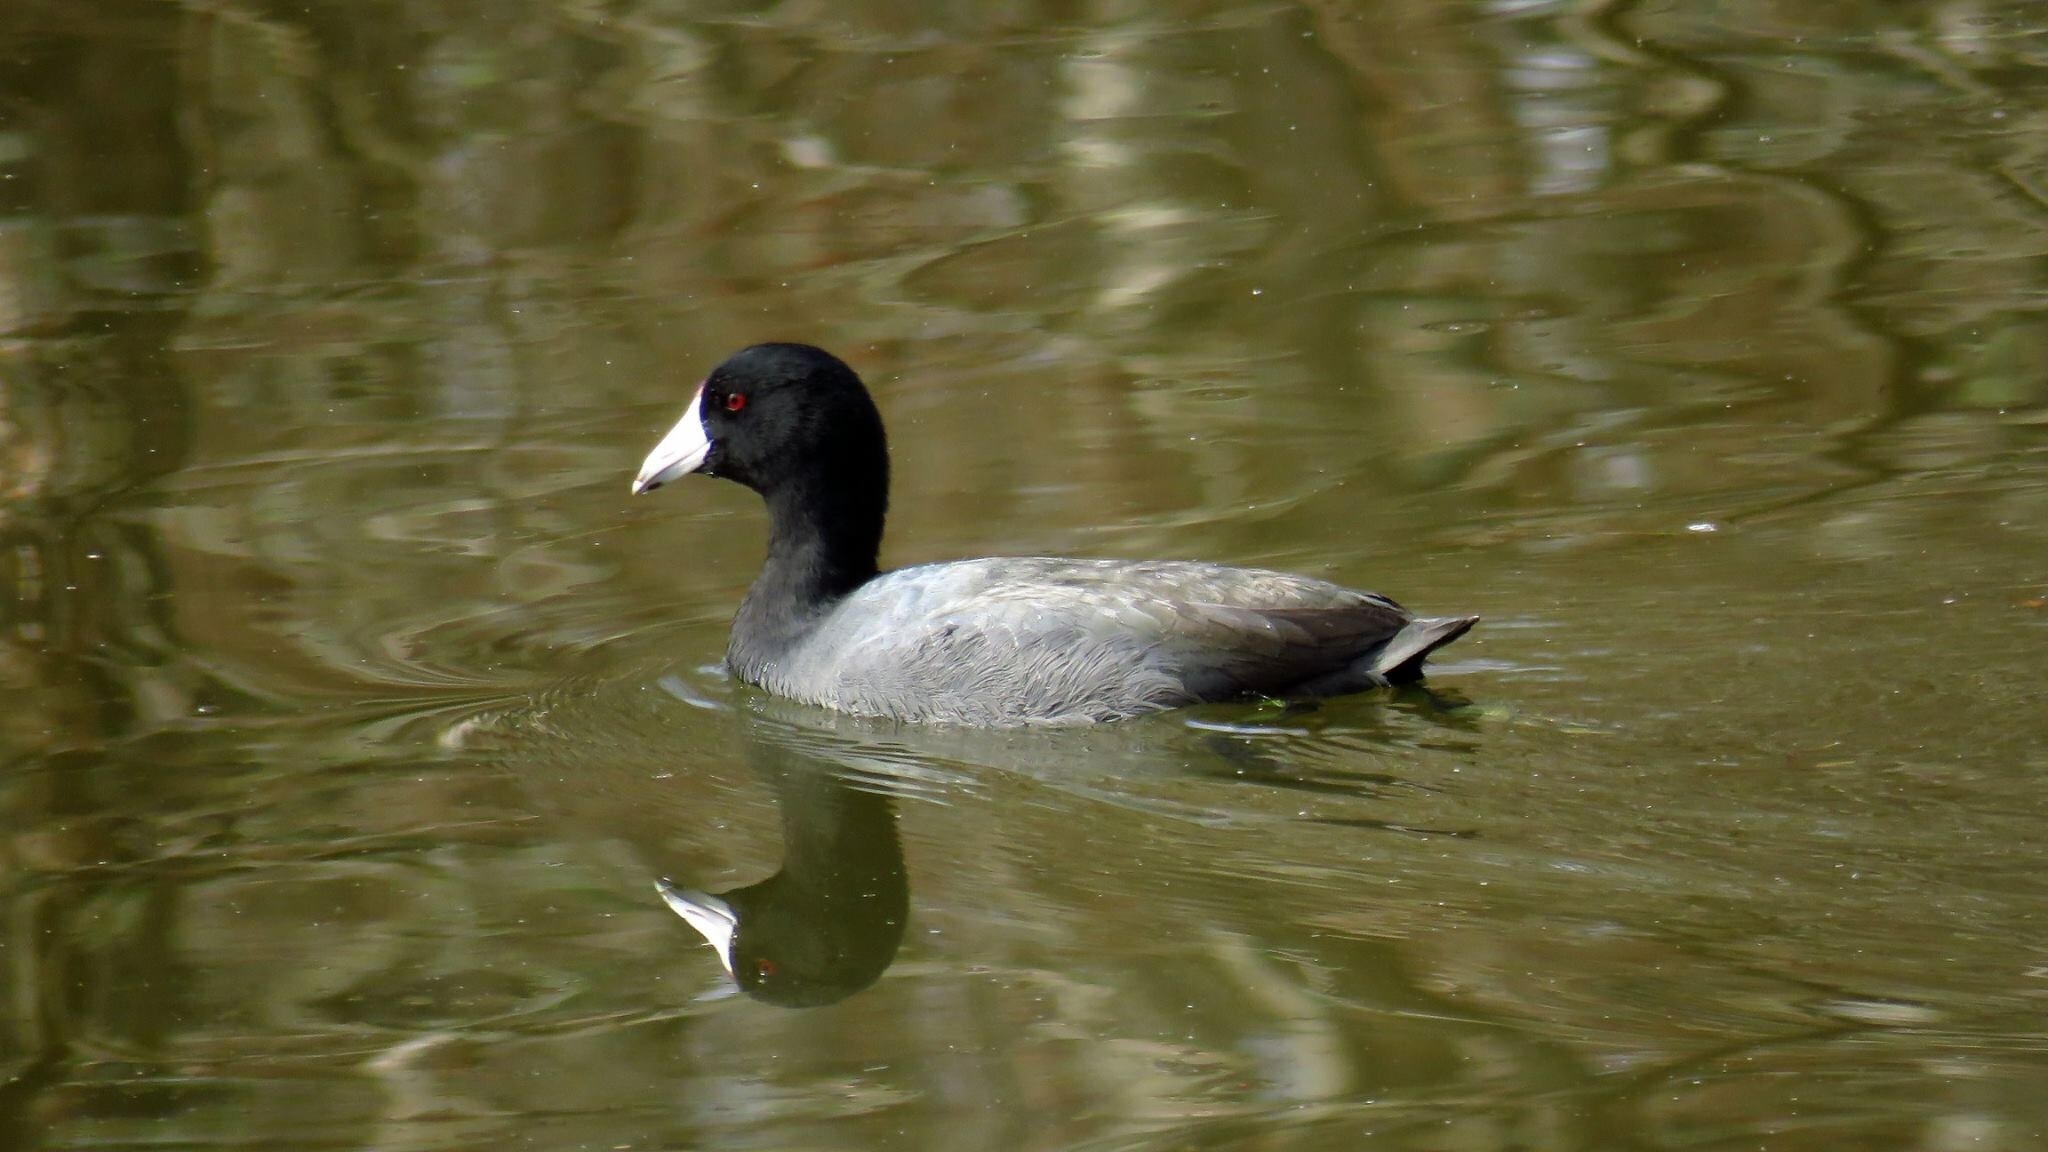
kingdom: Animalia
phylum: Chordata
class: Aves
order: Gruiformes
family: Rallidae
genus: Fulica
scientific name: Fulica americana
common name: American coot
